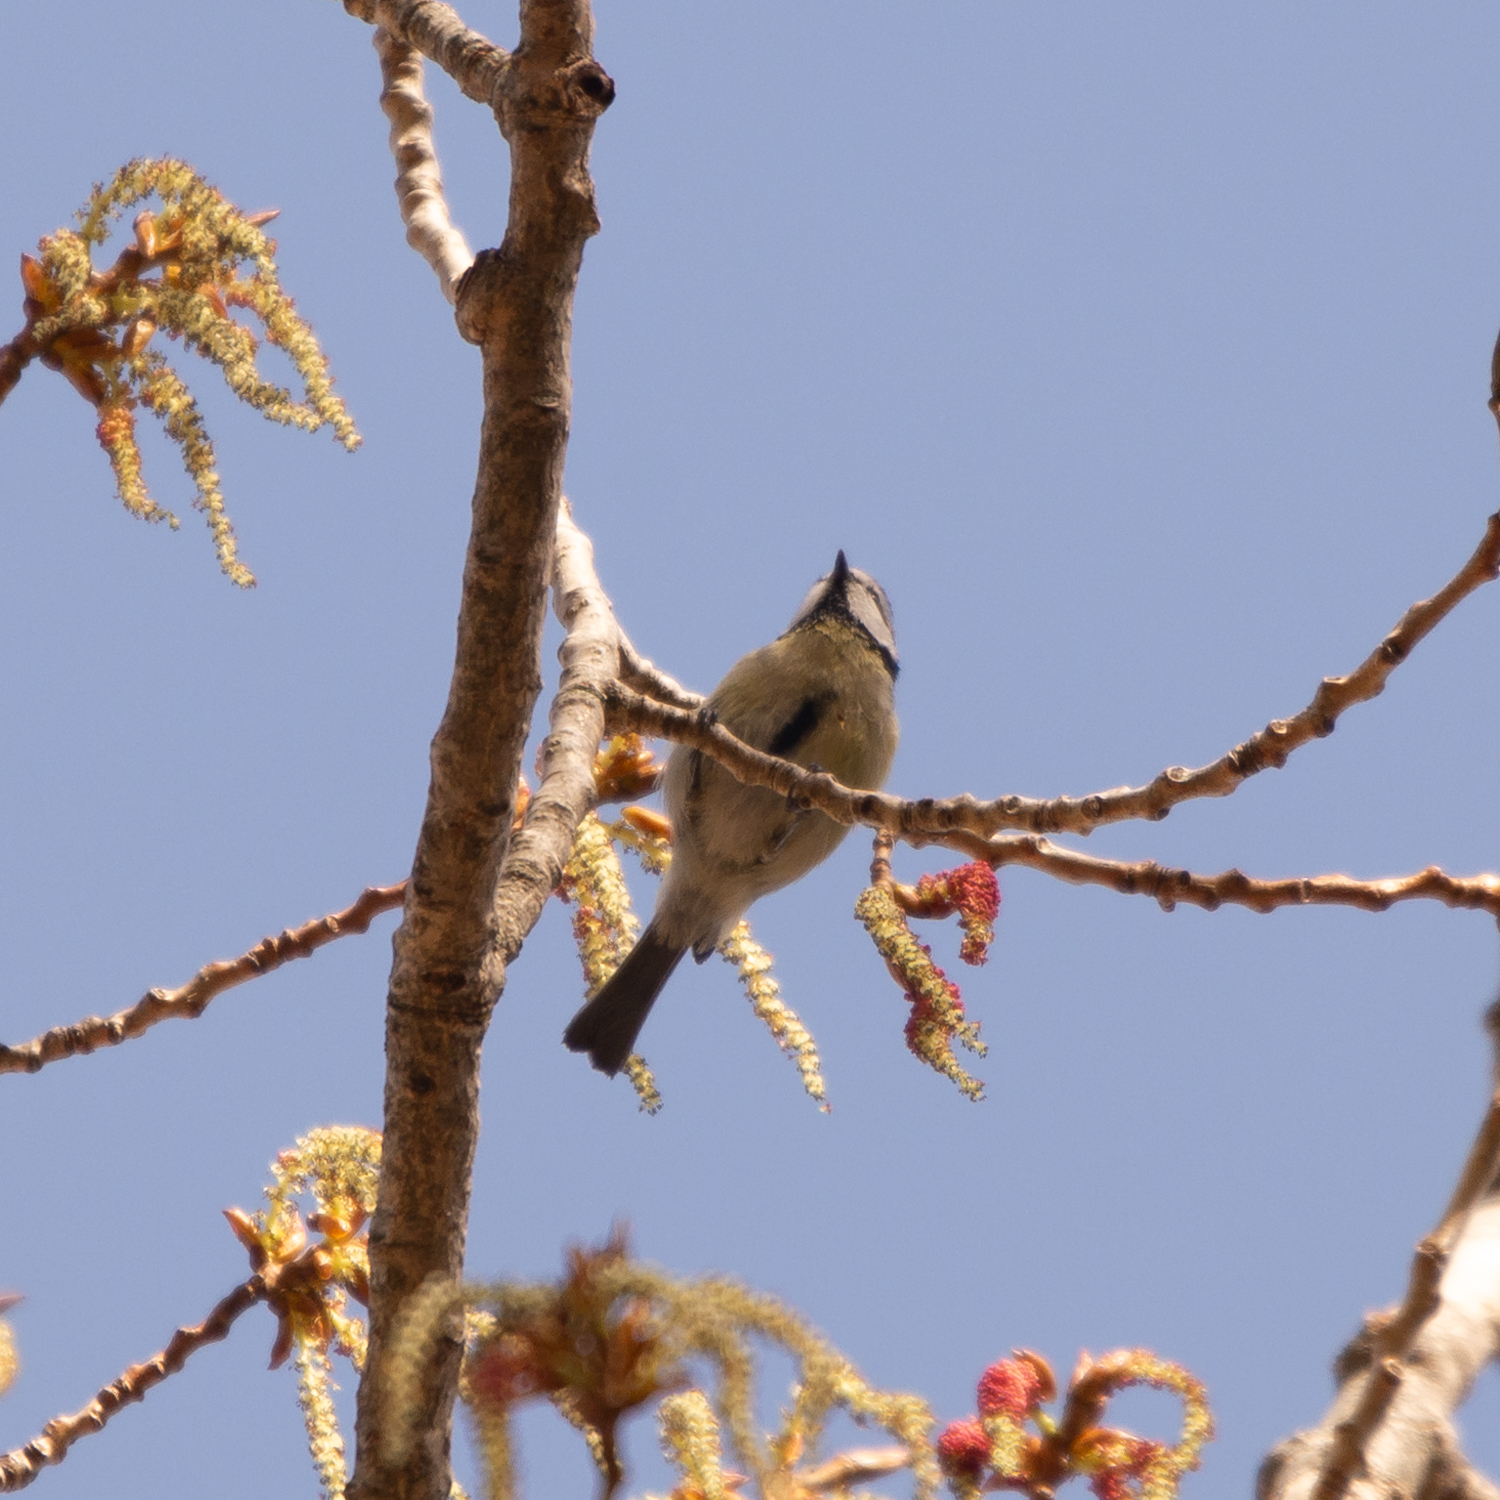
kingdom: Animalia
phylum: Chordata
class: Aves
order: Passeriformes
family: Paridae
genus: Cyanistes
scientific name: Cyanistes caeruleus
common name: Eurasian blue tit
